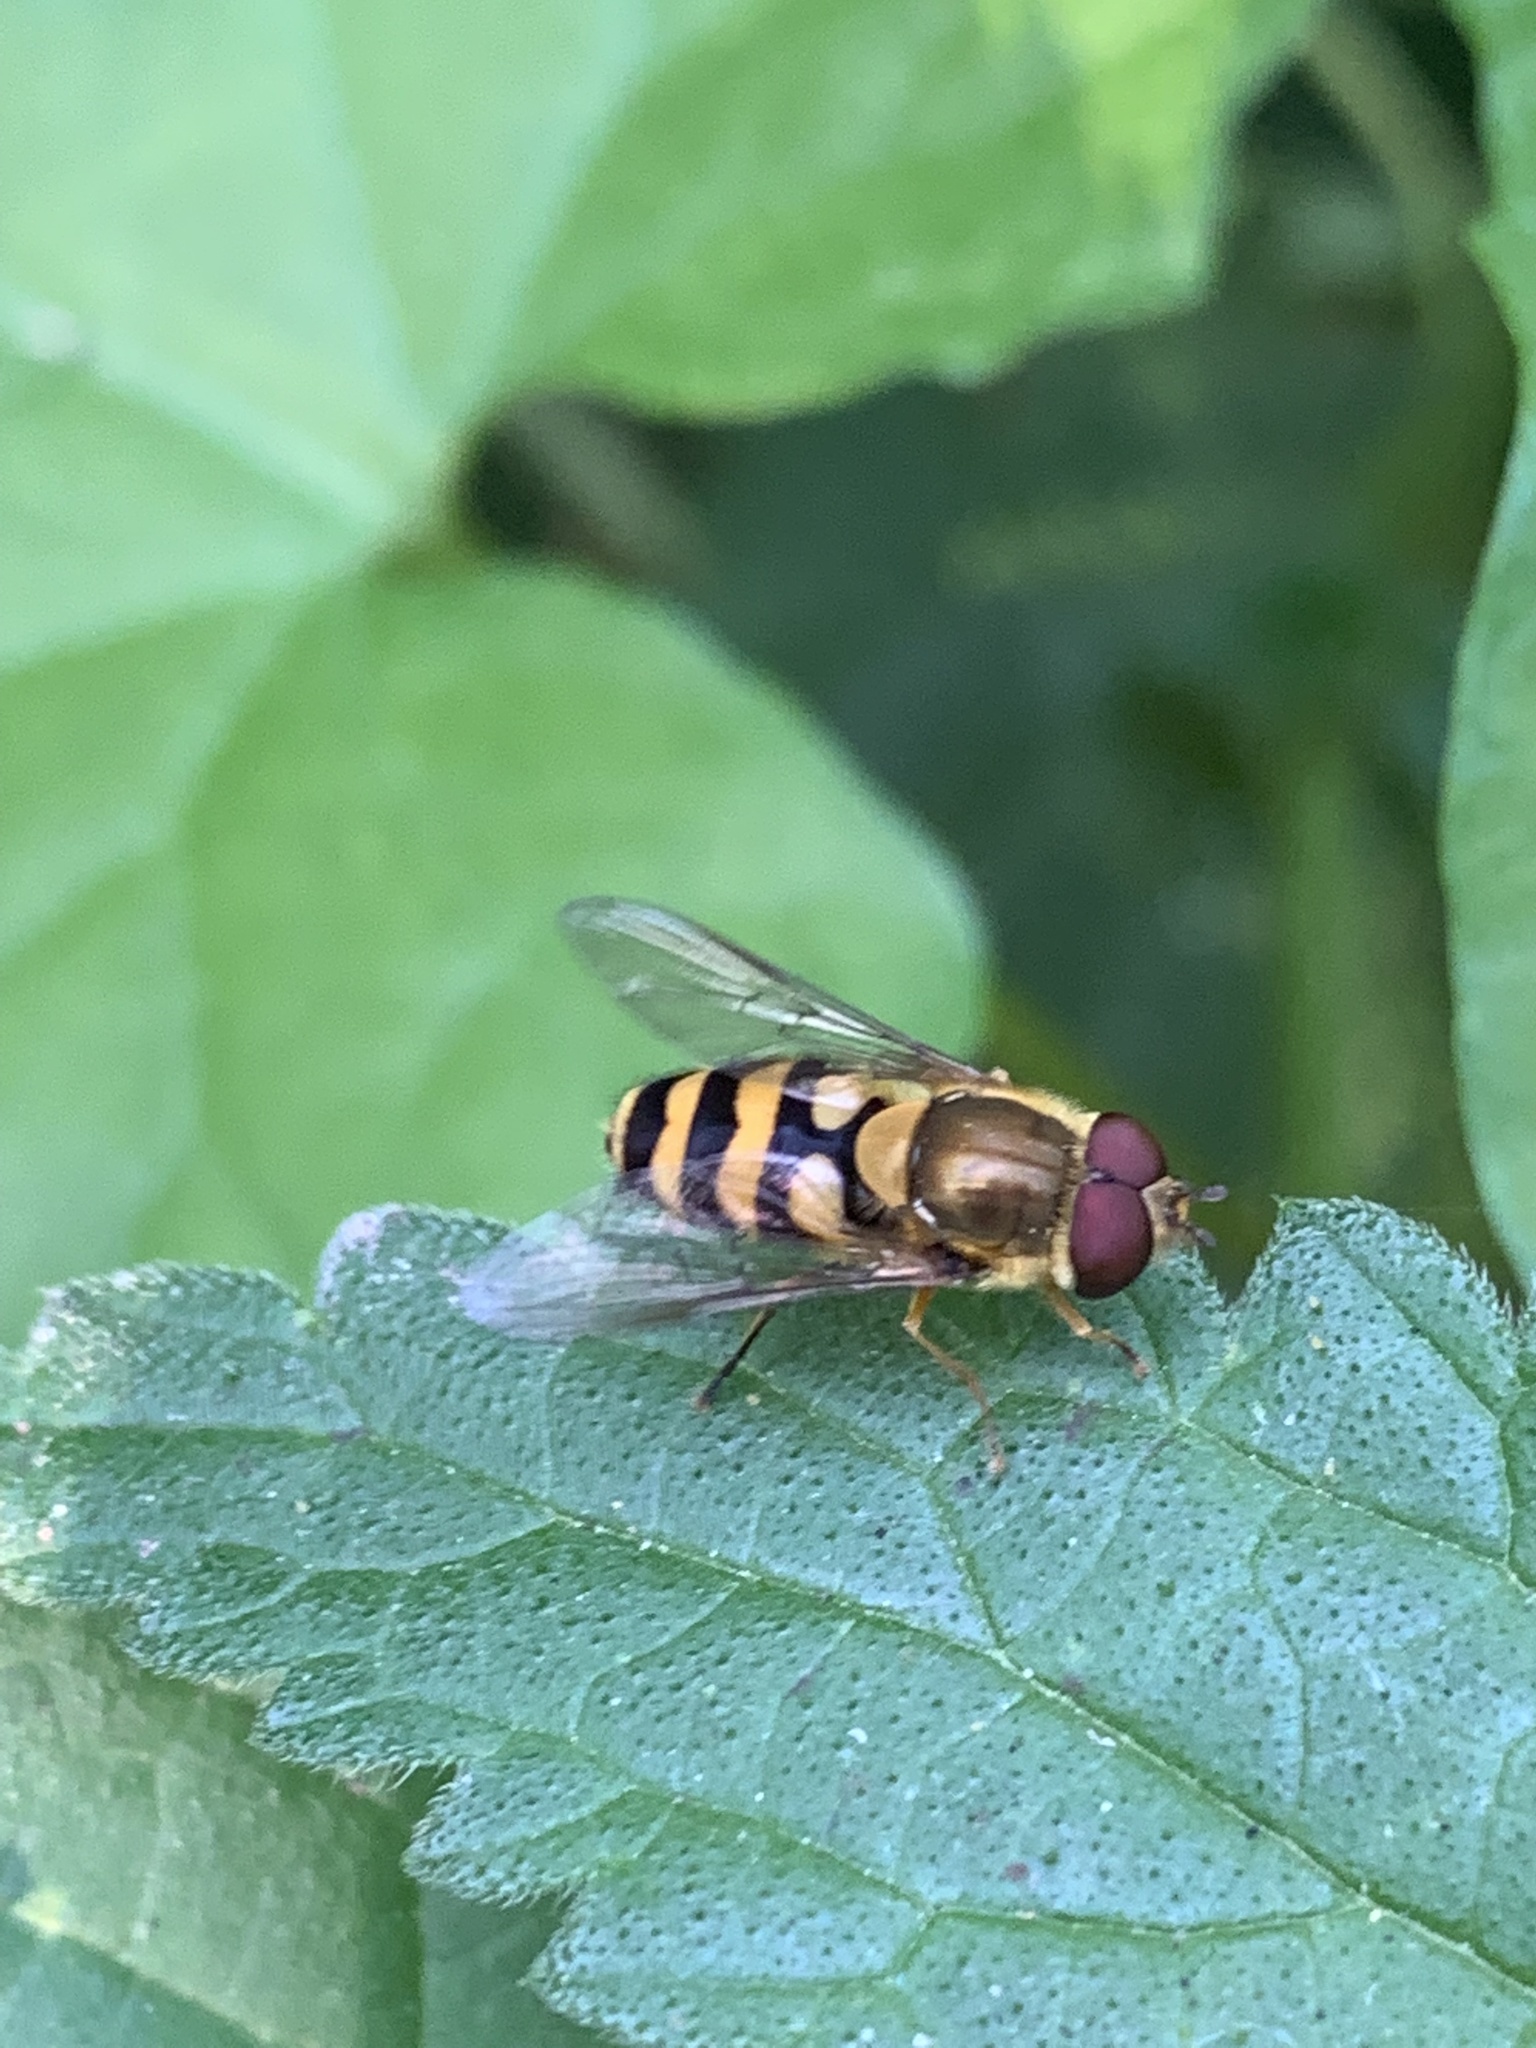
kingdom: Animalia
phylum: Arthropoda
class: Insecta
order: Diptera
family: Syrphidae
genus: Syrphus
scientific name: Syrphus
